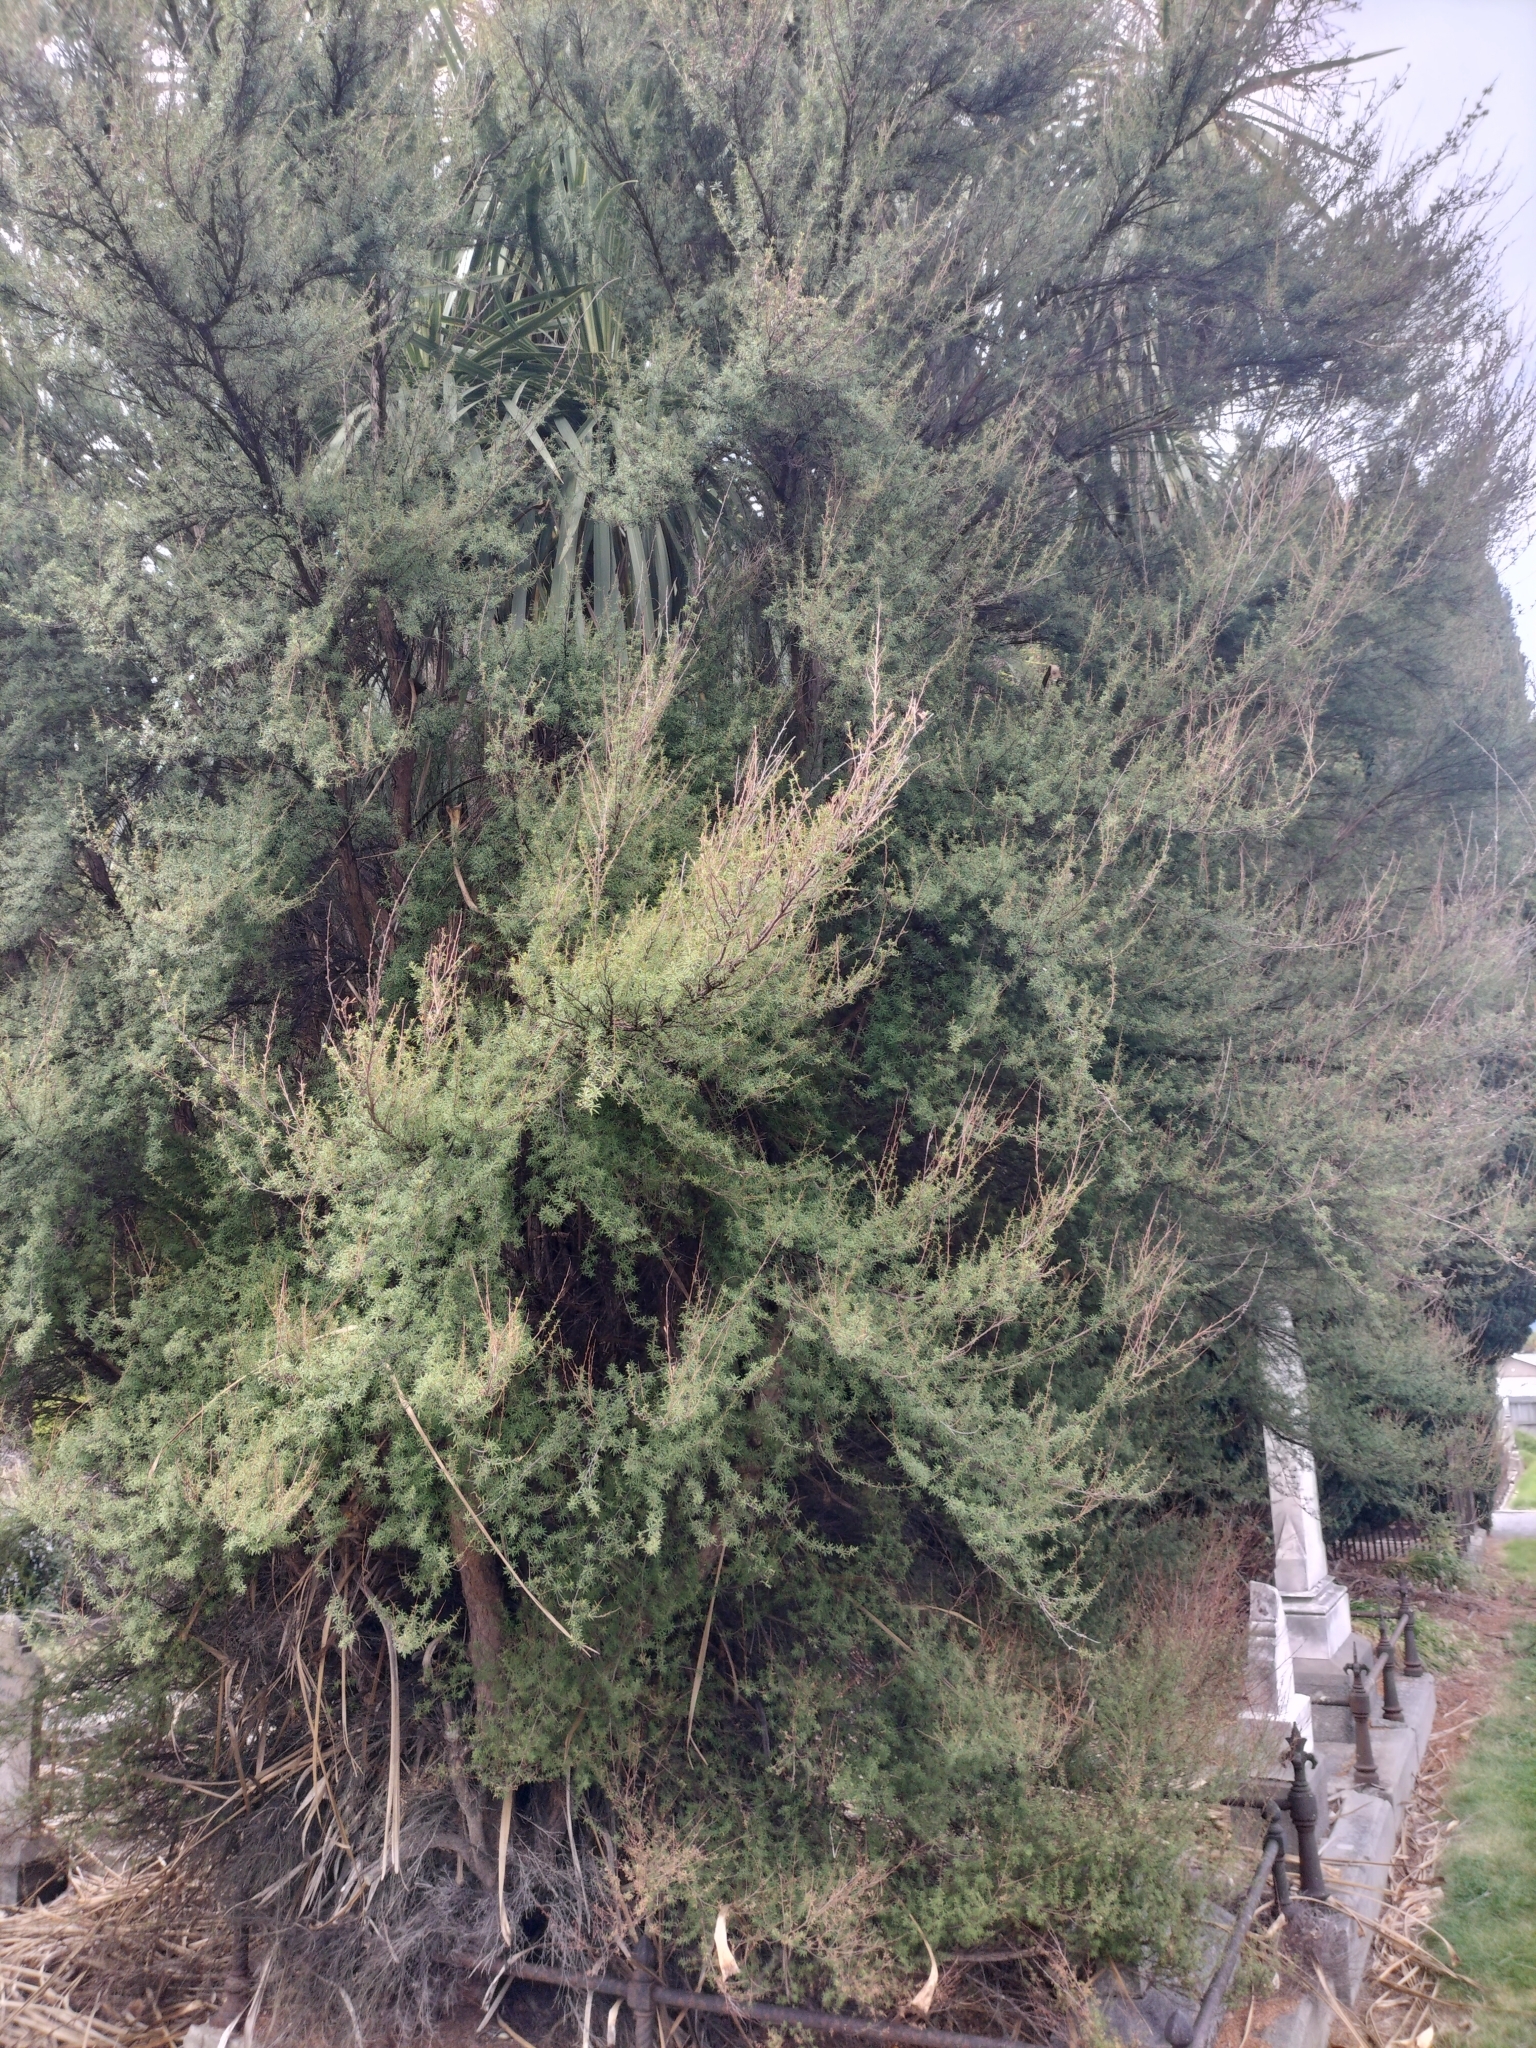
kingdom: Plantae
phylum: Tracheophyta
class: Magnoliopsida
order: Myrtales
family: Myrtaceae
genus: Kunzea
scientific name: Kunzea robusta
